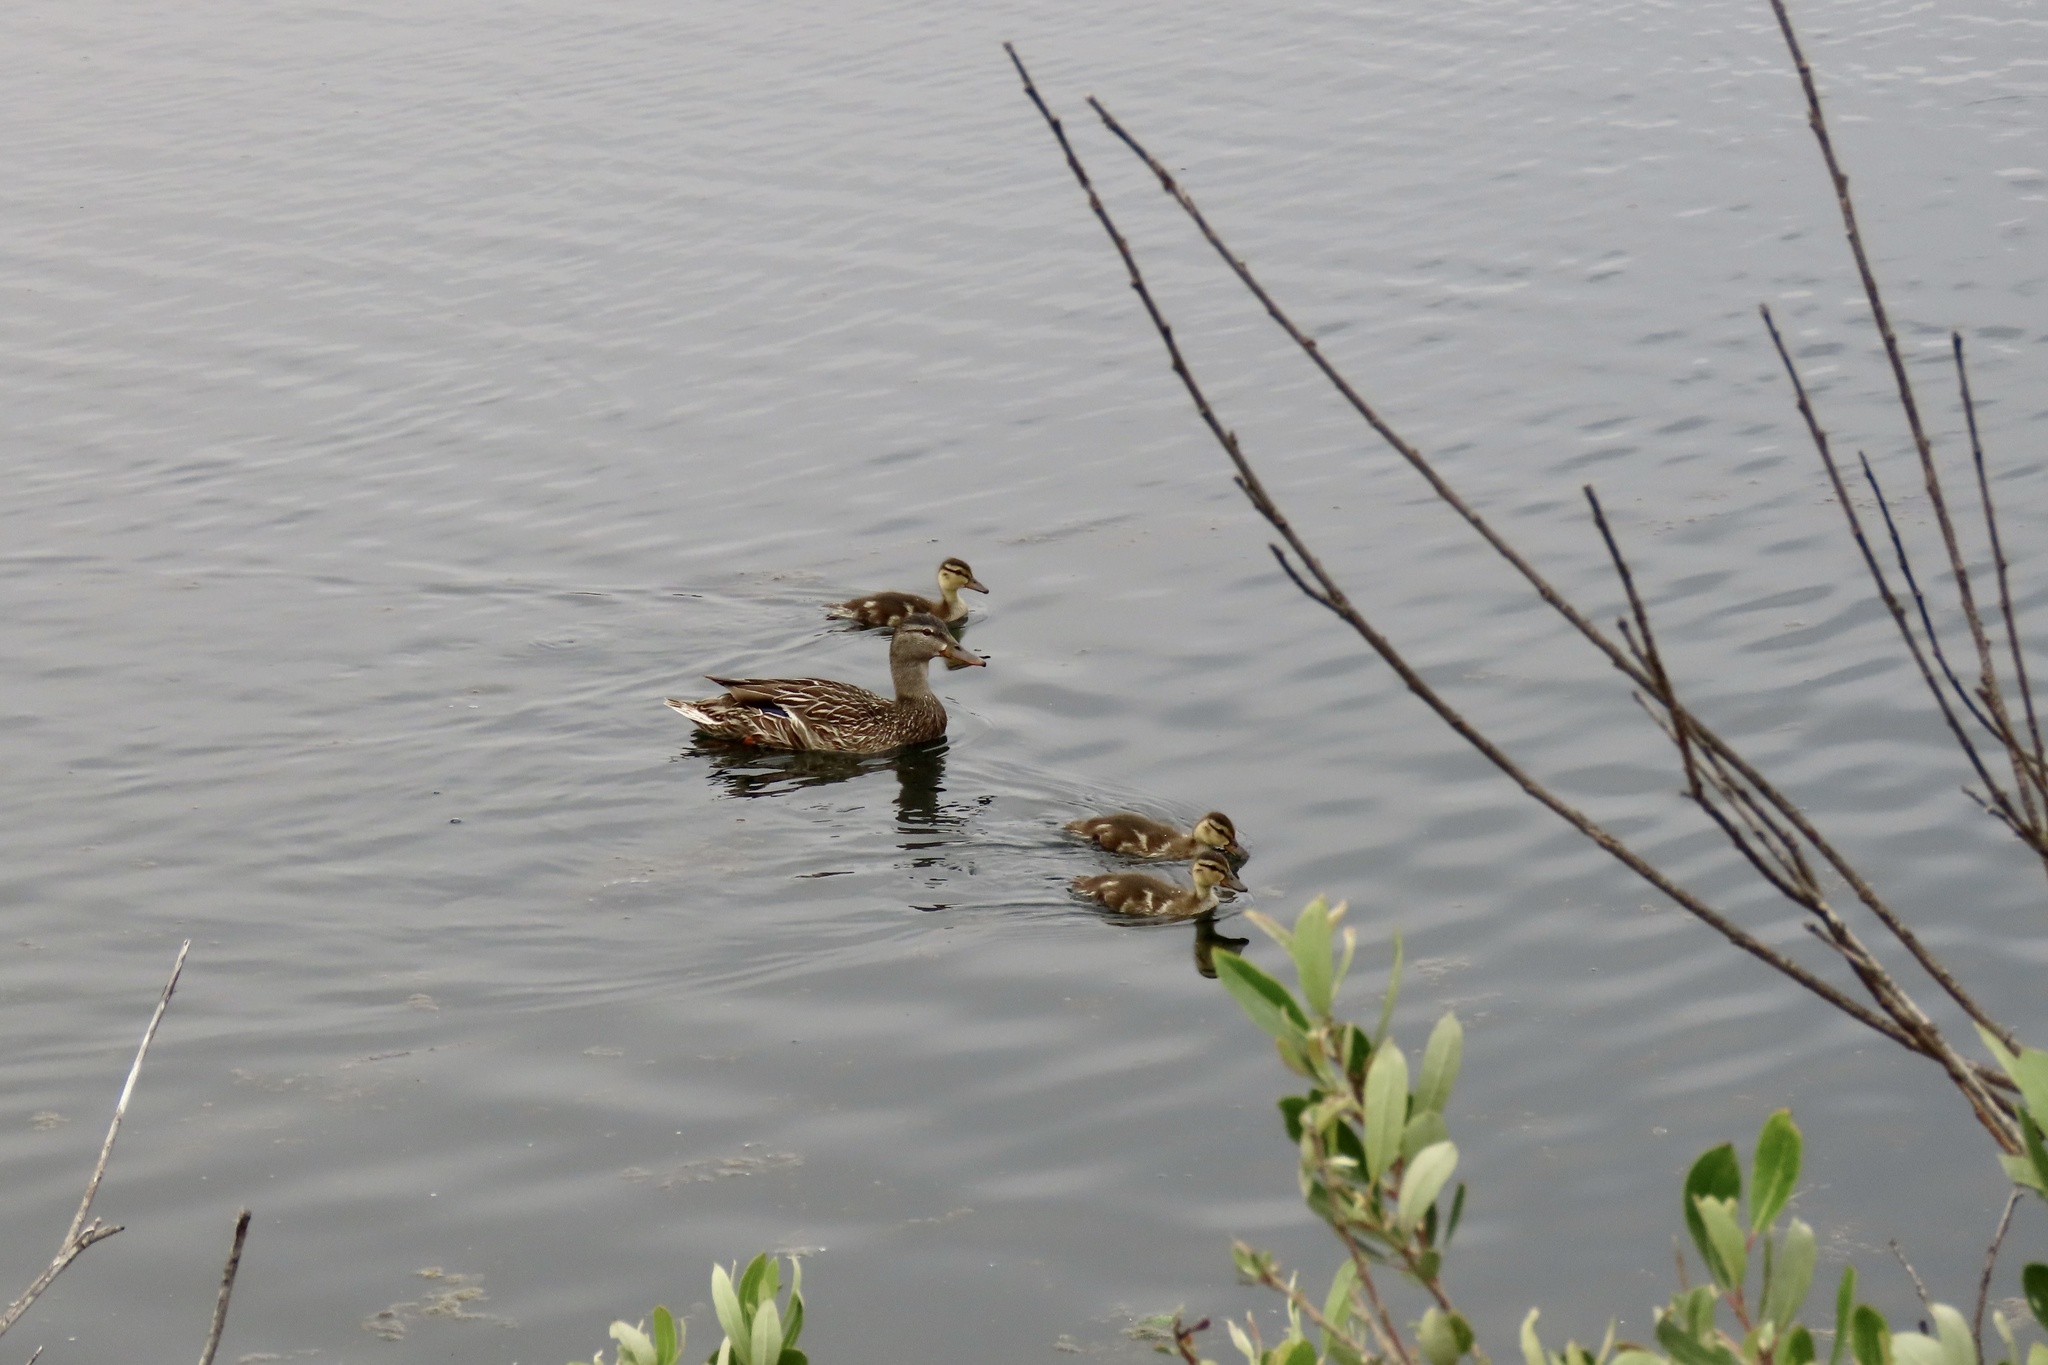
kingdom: Animalia
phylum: Chordata
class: Aves
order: Anseriformes
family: Anatidae
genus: Anas
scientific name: Anas platyrhynchos
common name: Mallard
